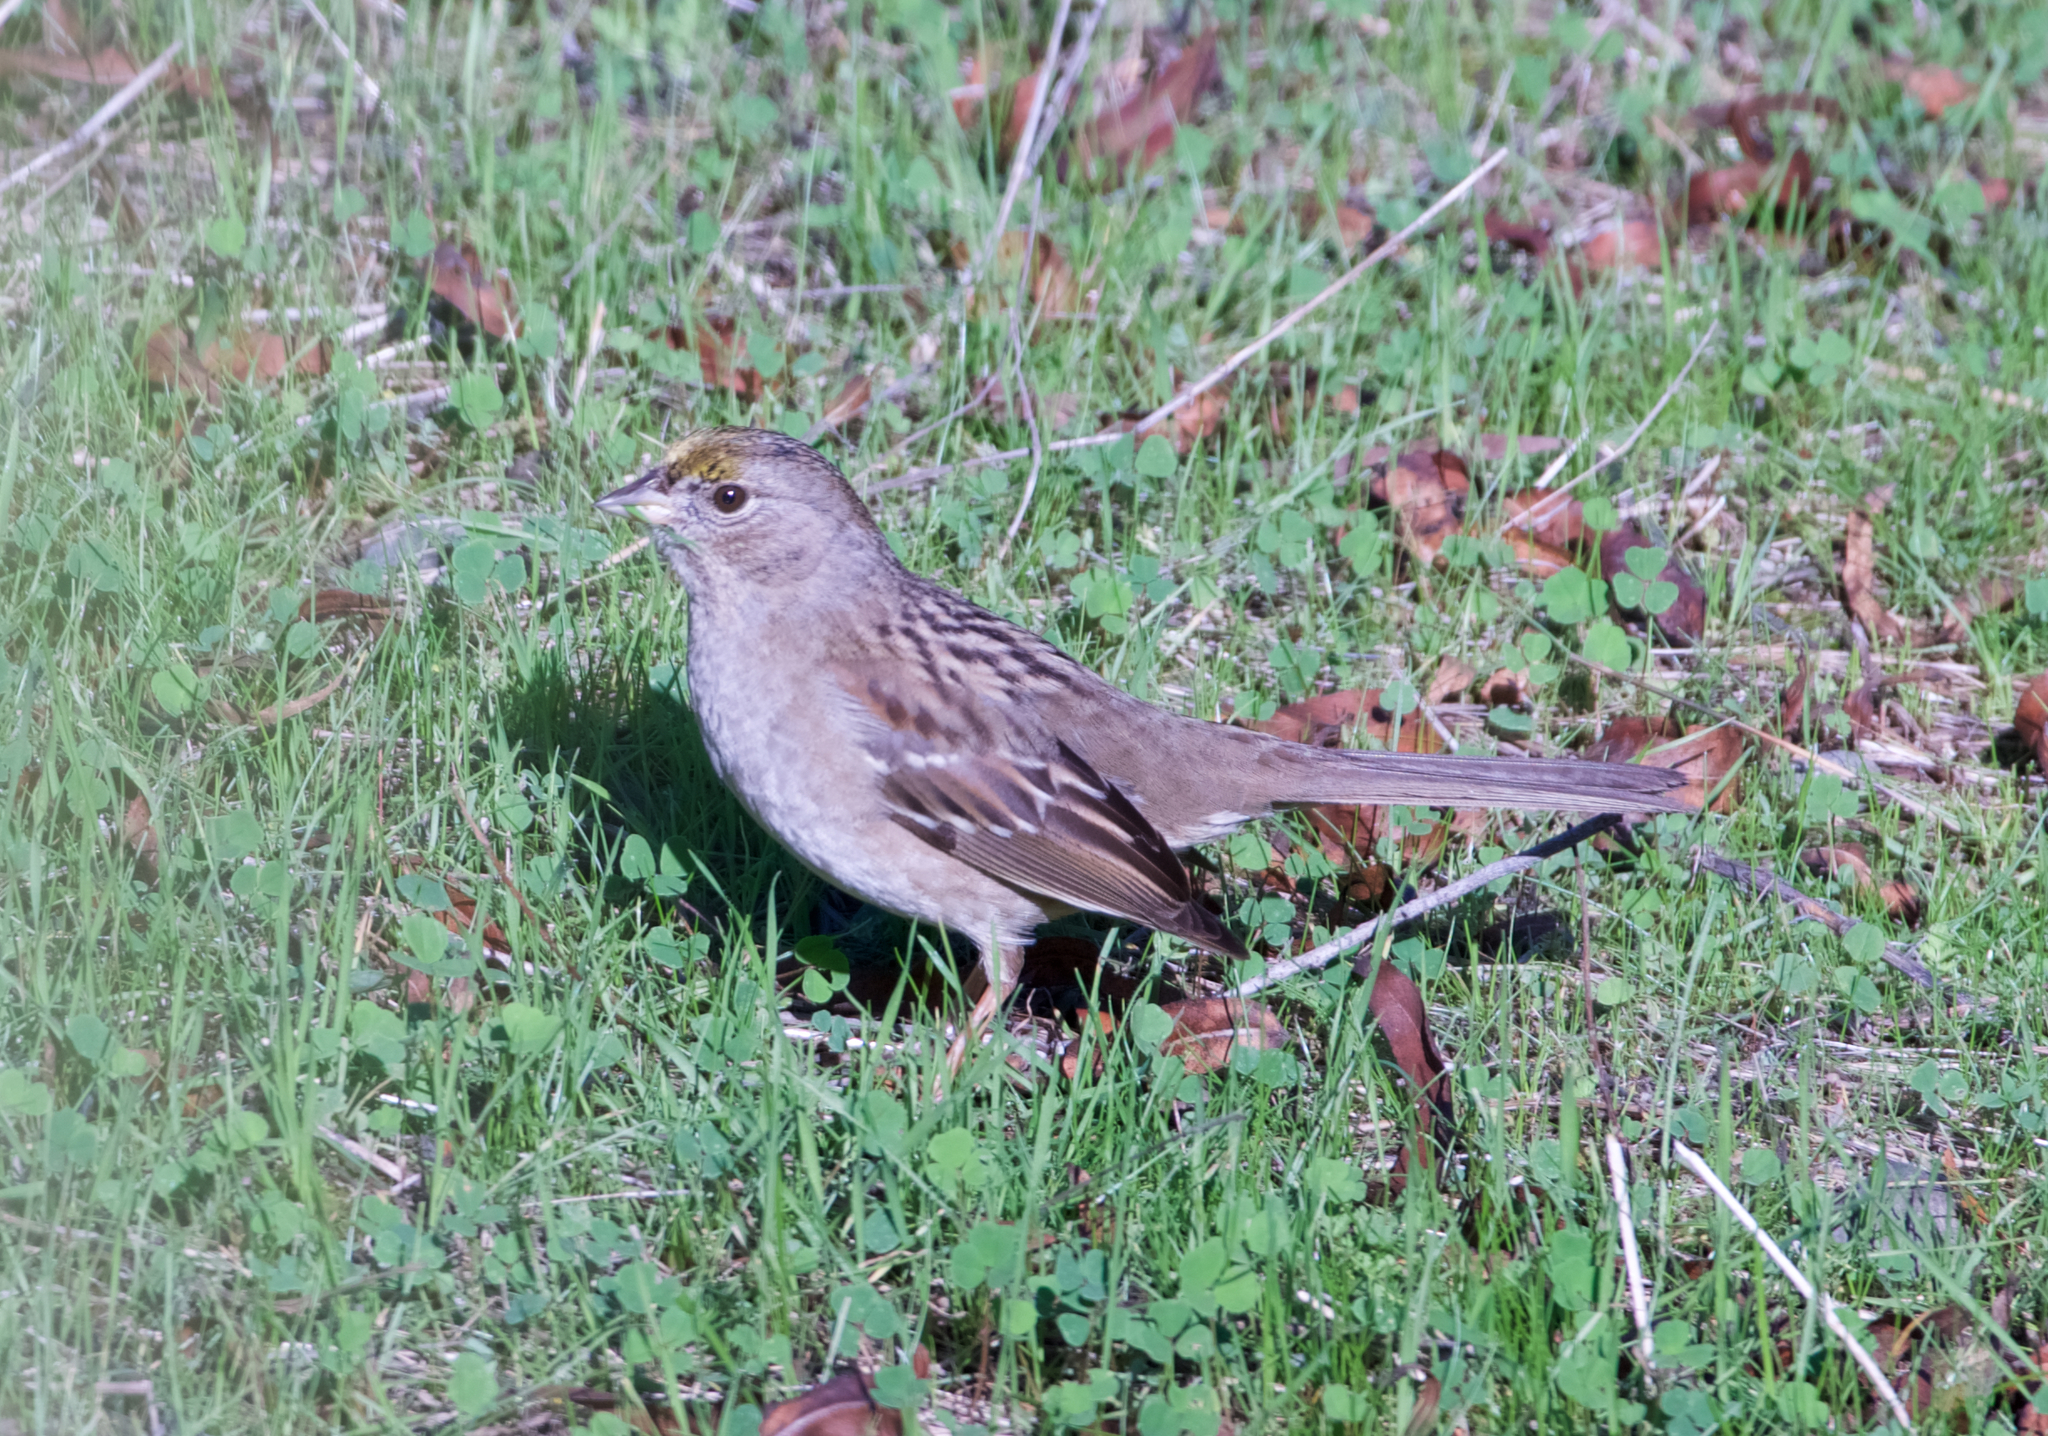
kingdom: Animalia
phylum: Chordata
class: Aves
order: Passeriformes
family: Passerellidae
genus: Zonotrichia
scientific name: Zonotrichia atricapilla
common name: Golden-crowned sparrow
